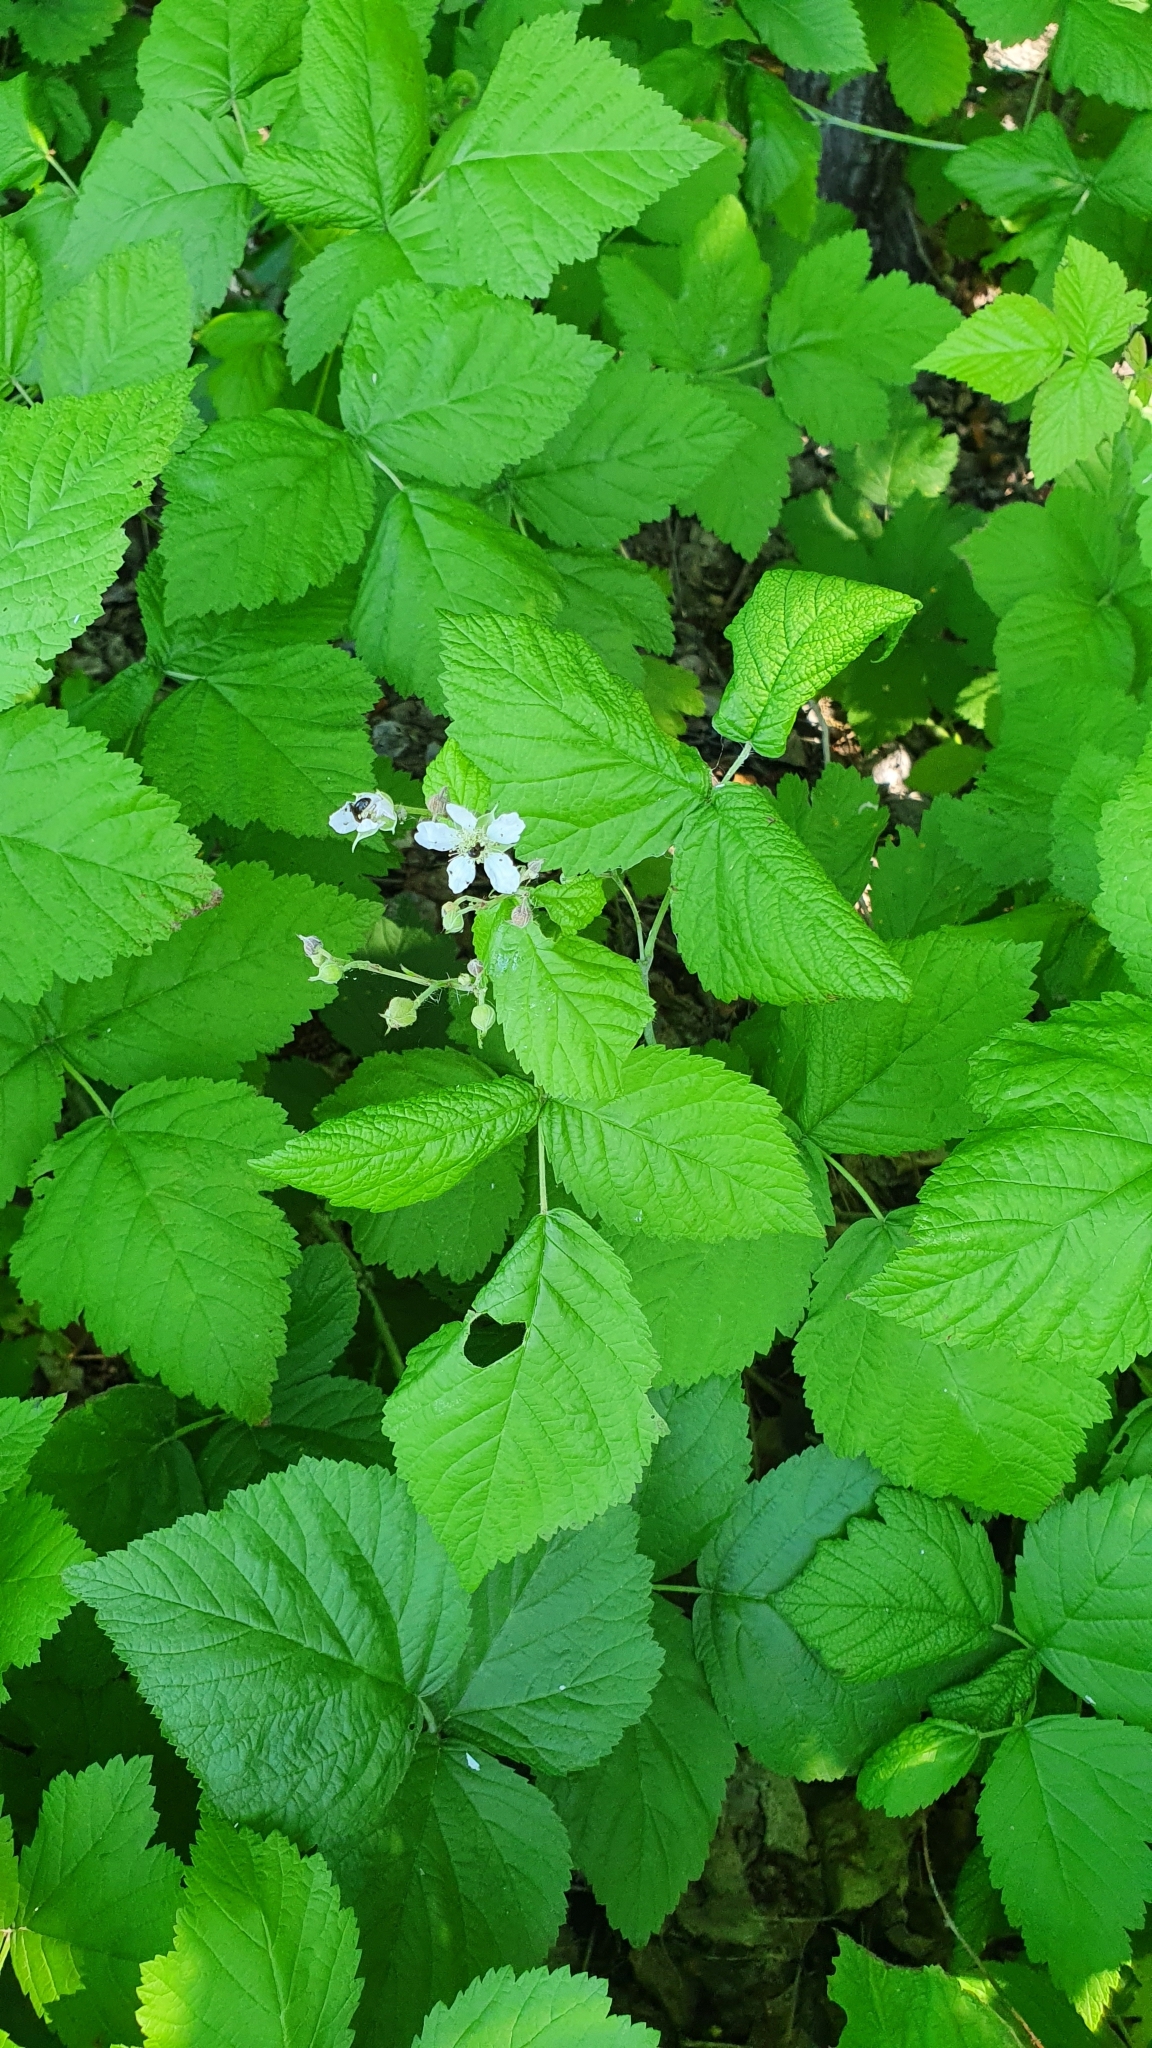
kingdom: Plantae
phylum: Tracheophyta
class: Magnoliopsida
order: Rosales
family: Rosaceae
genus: Rubus
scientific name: Rubus caesius
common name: Dewberry
